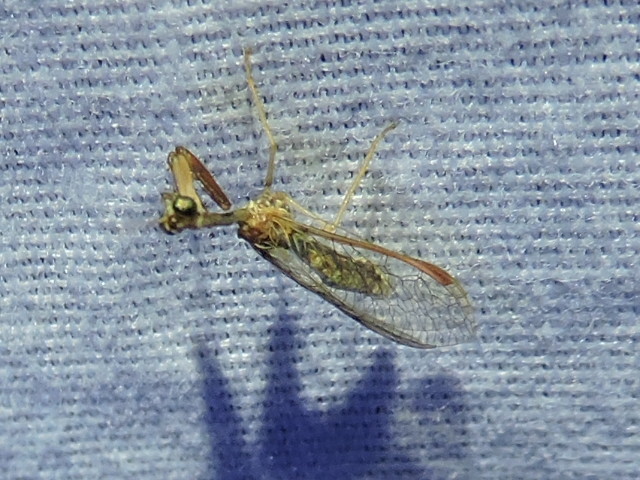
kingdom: Animalia
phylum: Arthropoda
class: Insecta
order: Neuroptera
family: Mantispidae
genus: Dicromantispa
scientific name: Dicromantispa sayi
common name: Say's mantidfly
